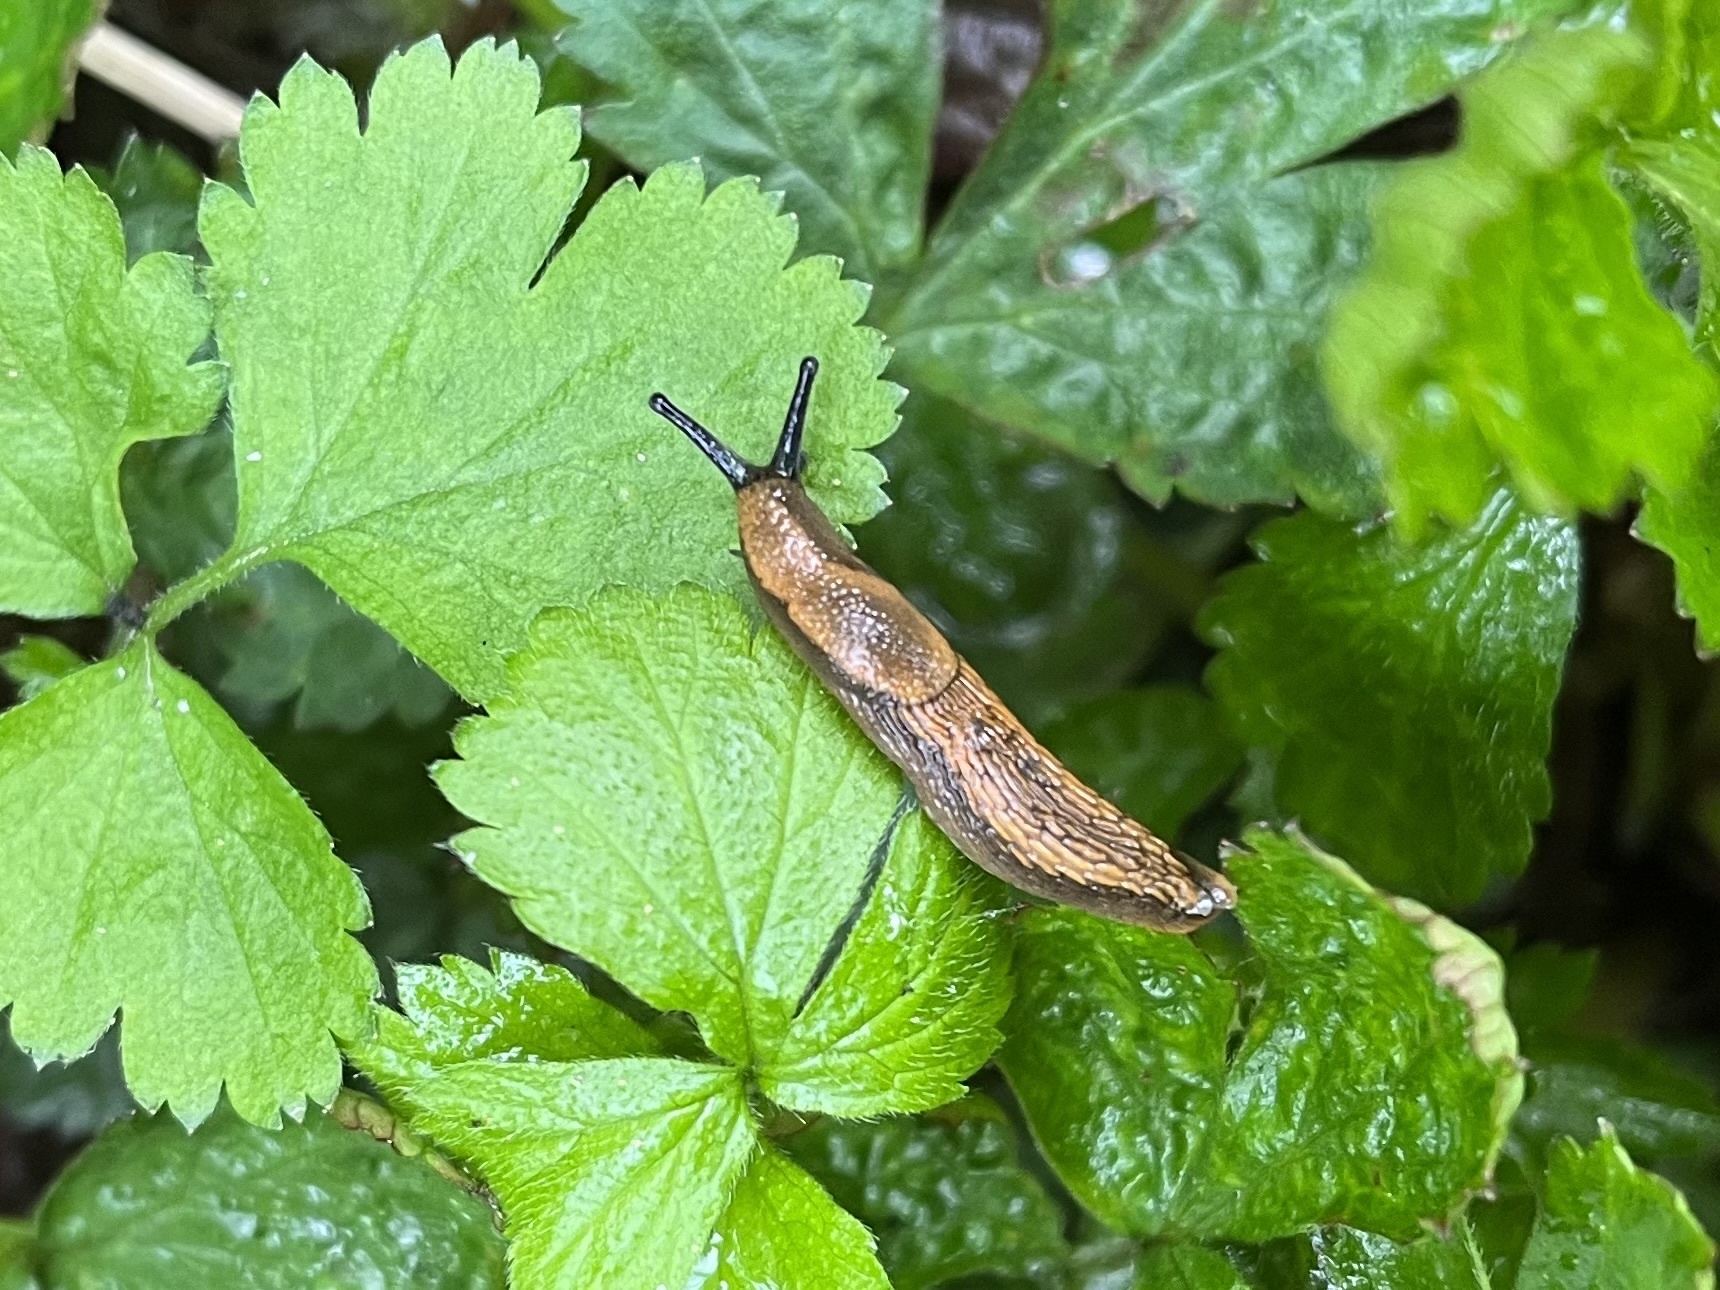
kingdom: Animalia
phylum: Mollusca
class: Gastropoda
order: Stylommatophora
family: Arionidae
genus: Arion
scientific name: Arion vulgaris
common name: Lusitanian slug
